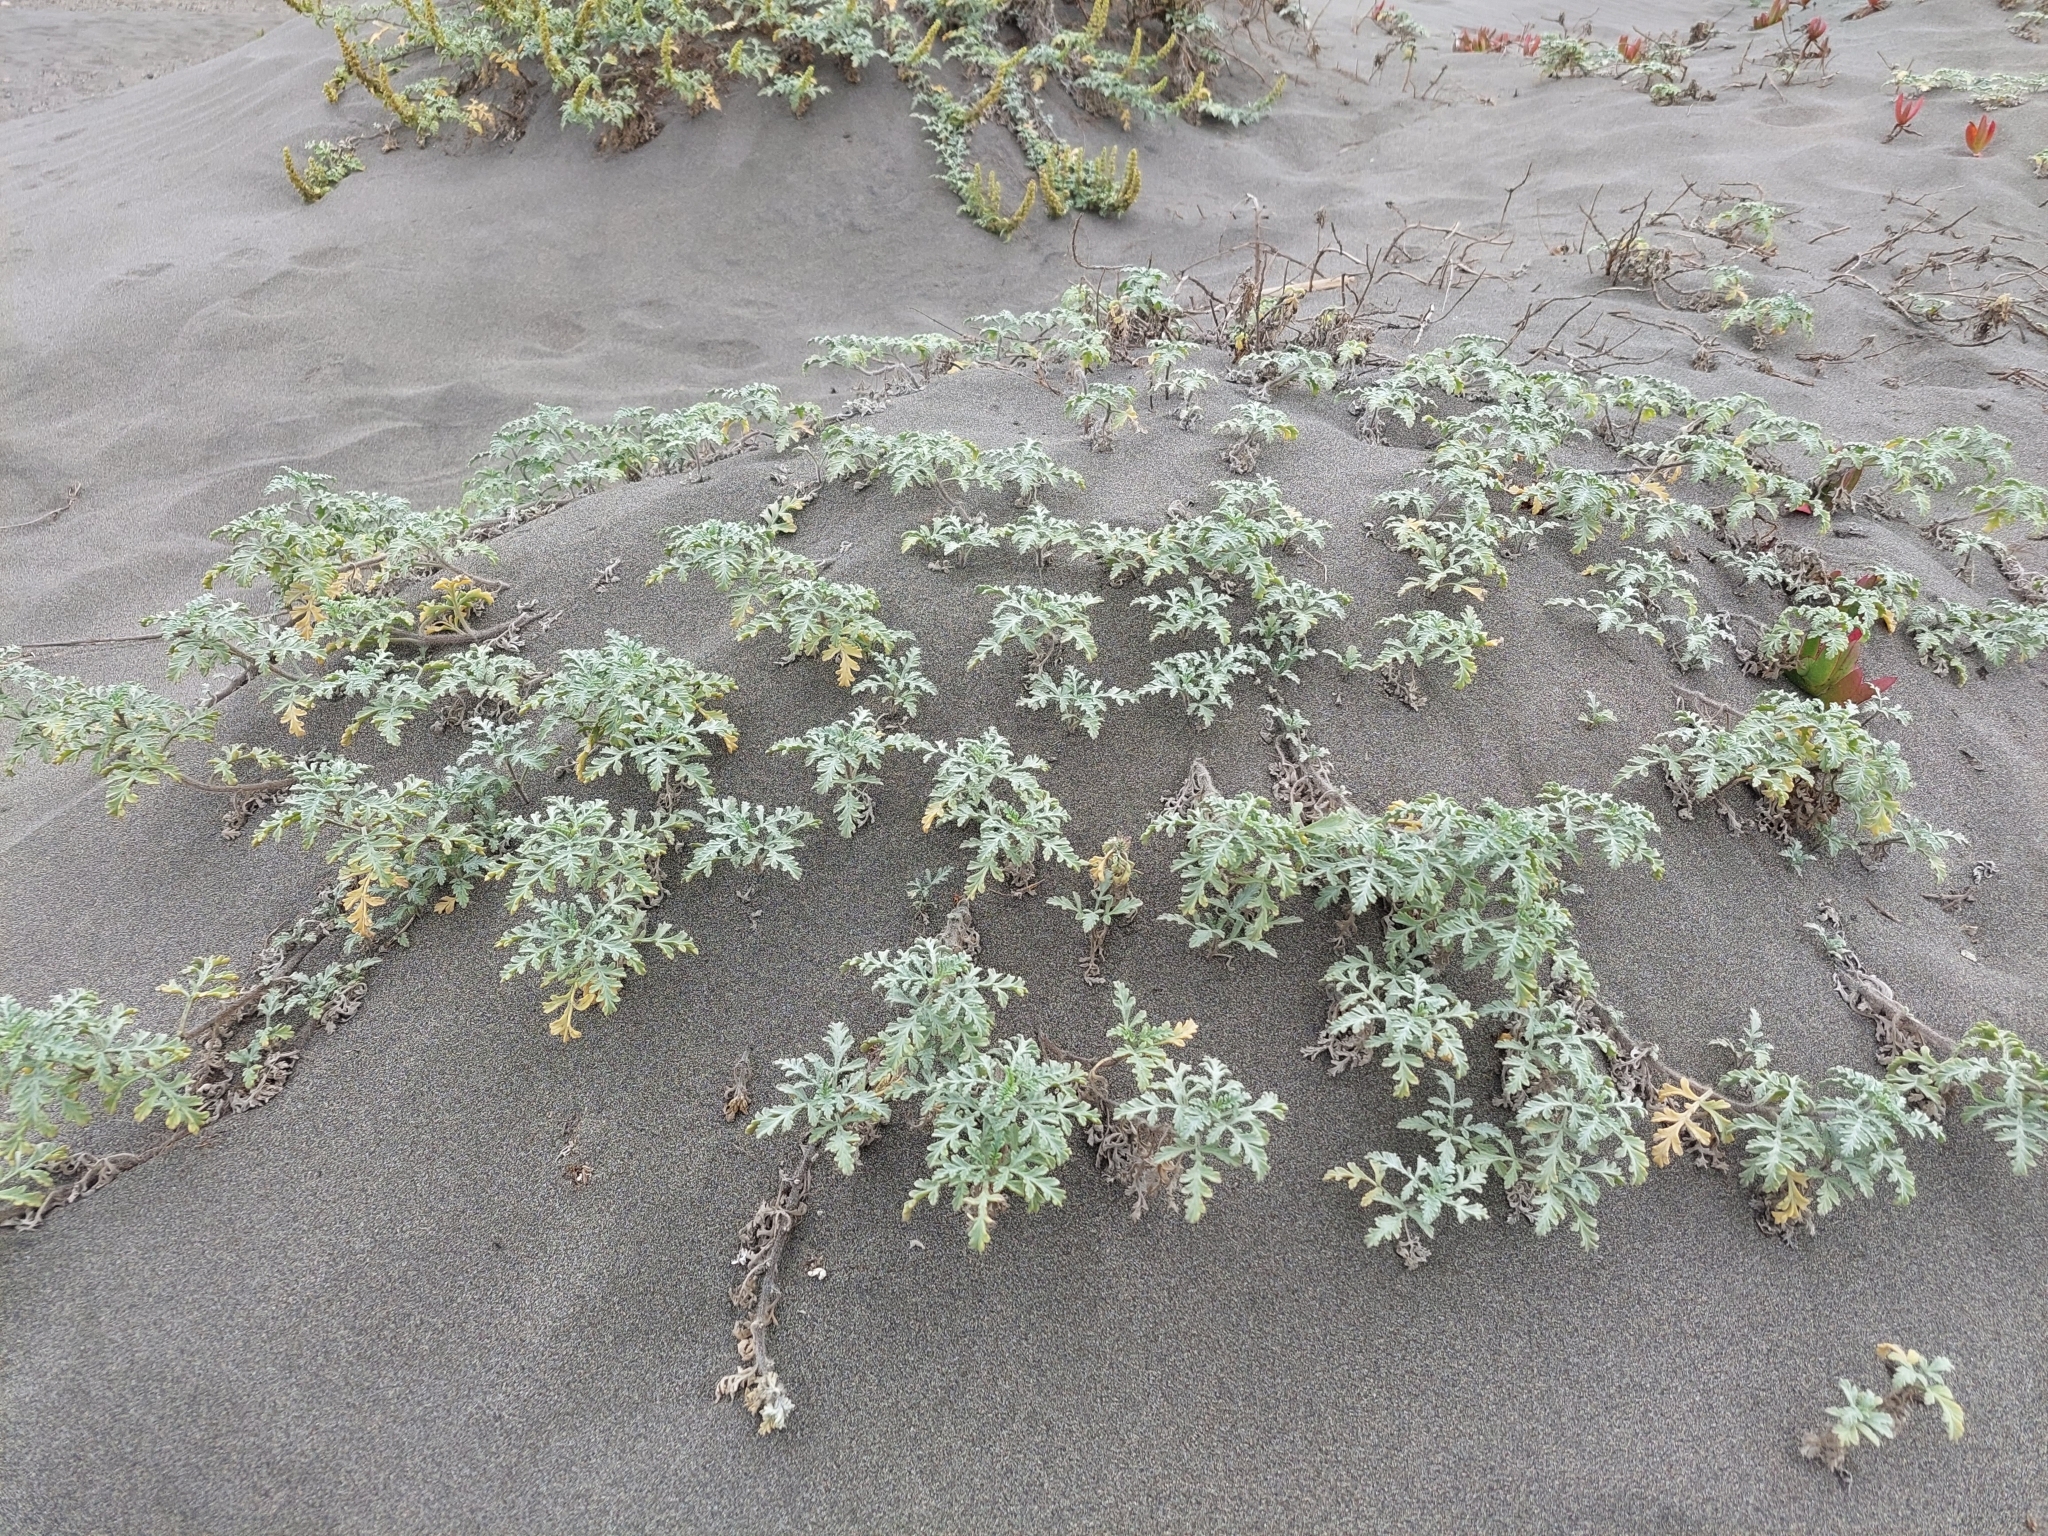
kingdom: Plantae
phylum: Tracheophyta
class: Magnoliopsida
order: Asterales
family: Asteraceae
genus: Ambrosia
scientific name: Ambrosia chamissonis
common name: Beachbur
